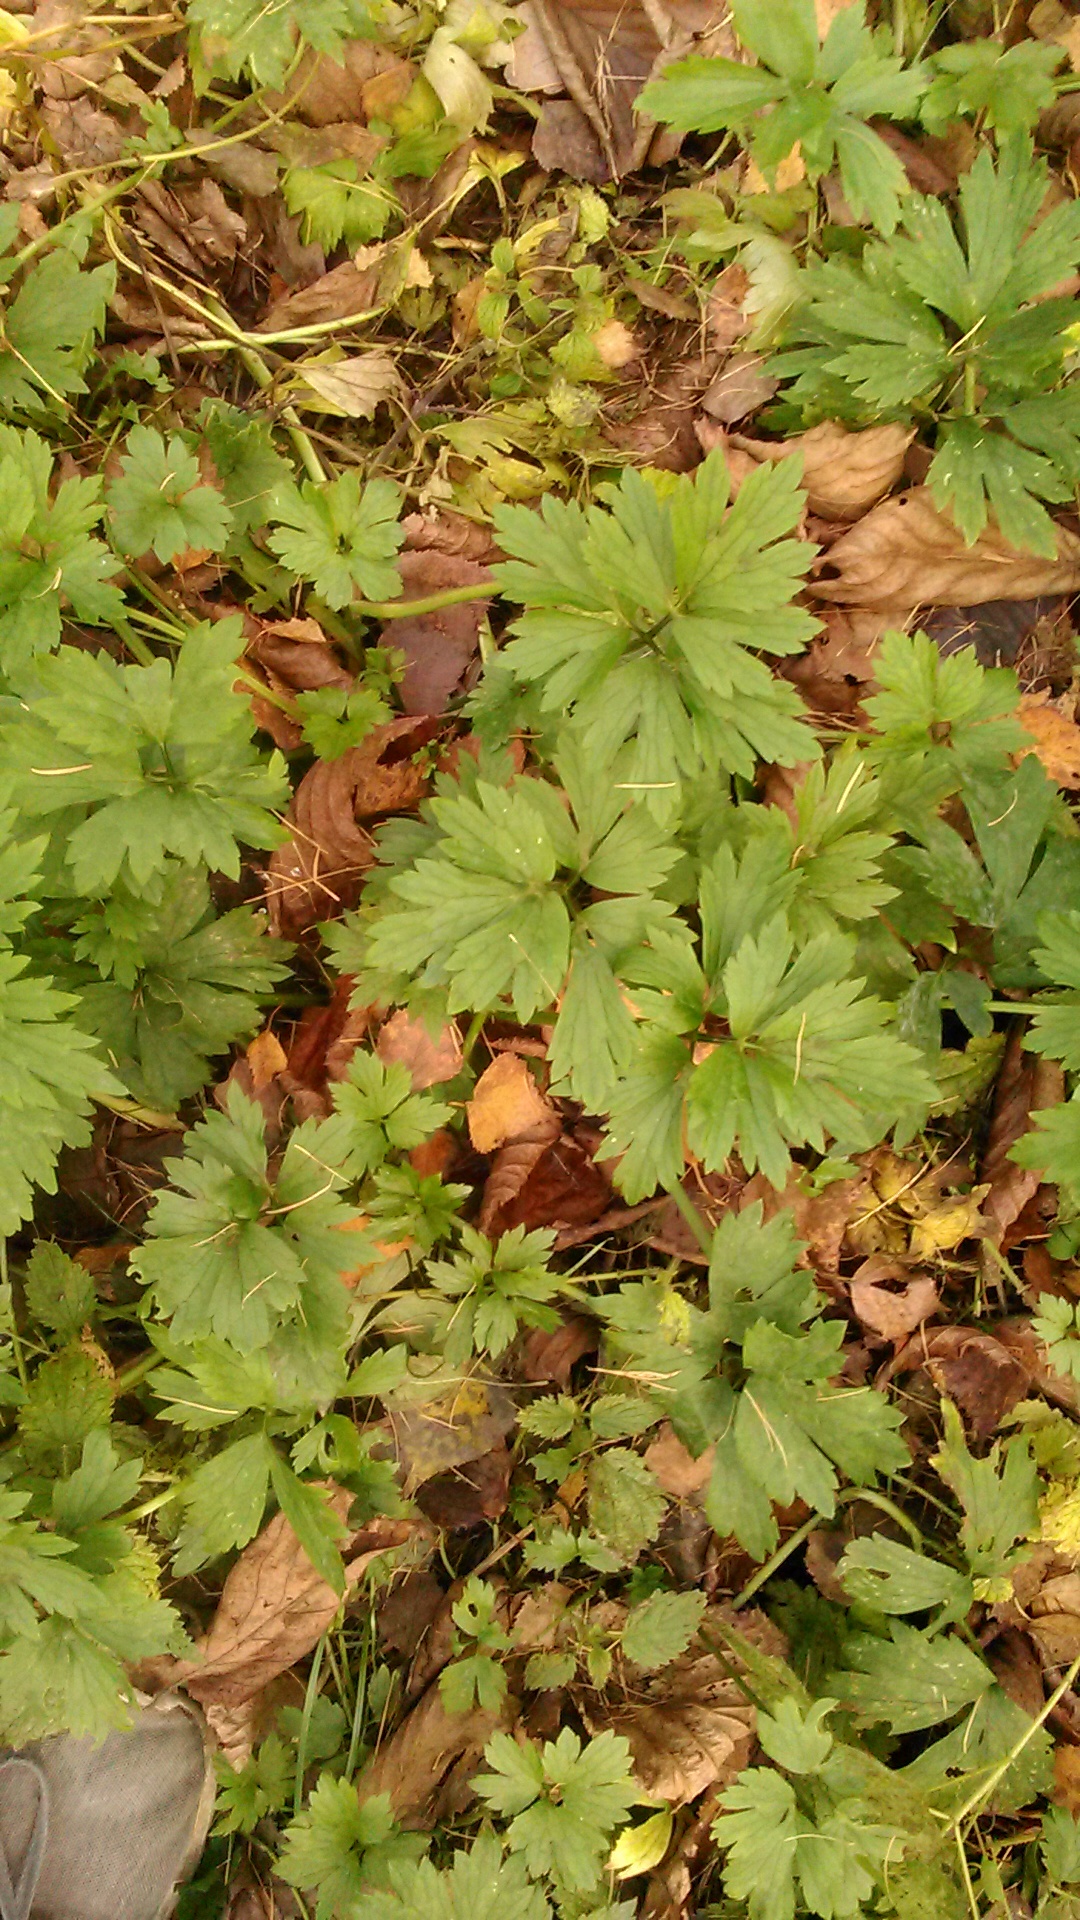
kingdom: Plantae
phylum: Tracheophyta
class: Magnoliopsida
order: Ranunculales
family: Ranunculaceae
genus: Ranunculus
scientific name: Ranunculus repens
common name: Creeping buttercup
